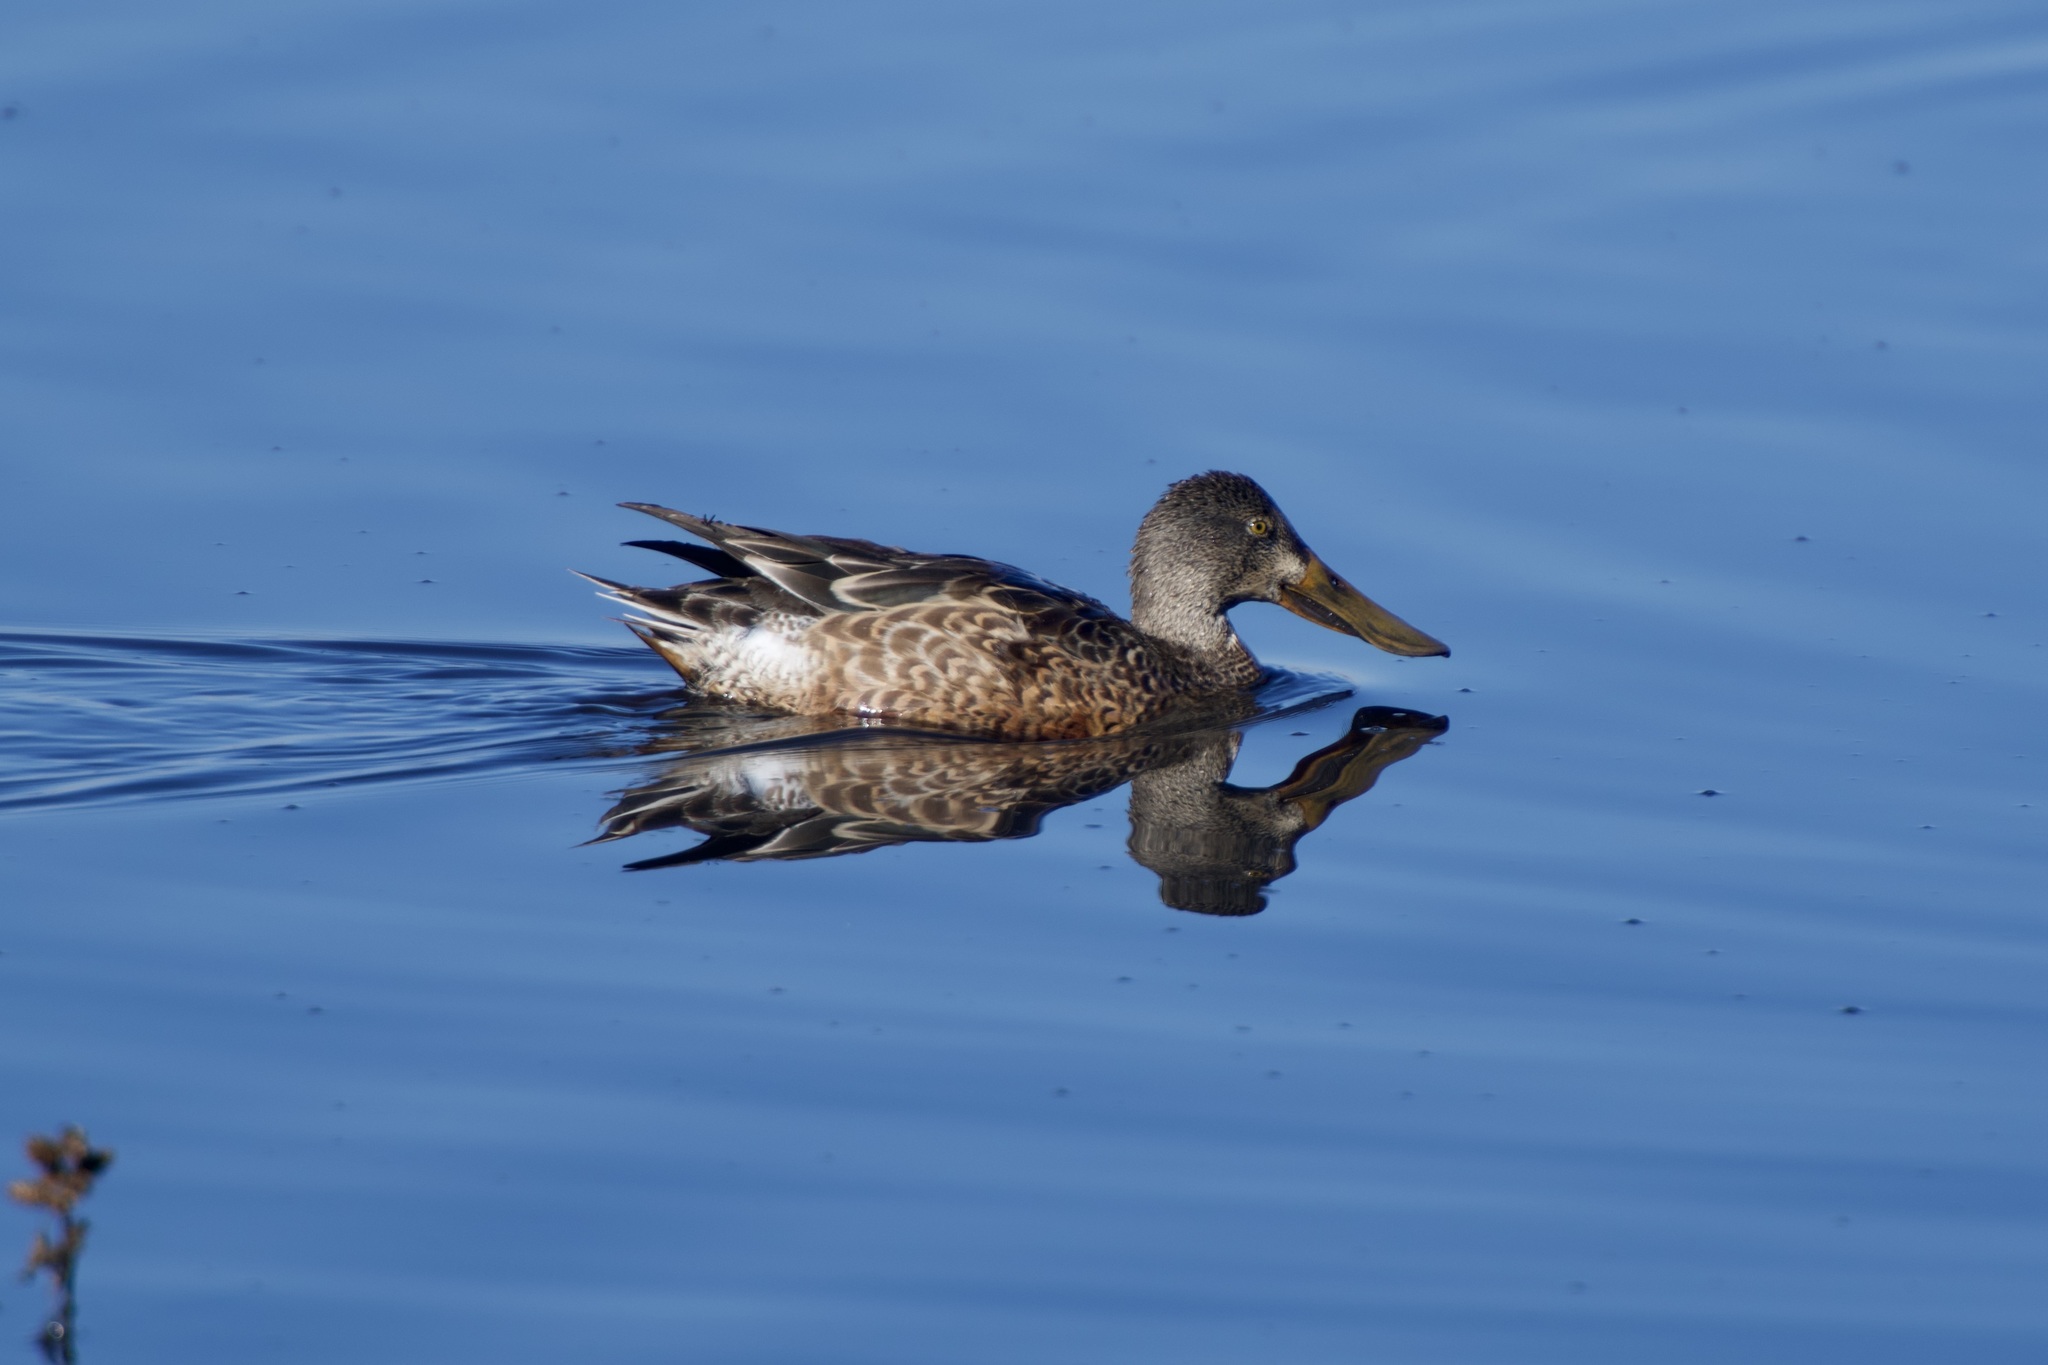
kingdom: Animalia
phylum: Chordata
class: Aves
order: Anseriformes
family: Anatidae
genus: Spatula
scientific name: Spatula clypeata
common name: Northern shoveler
